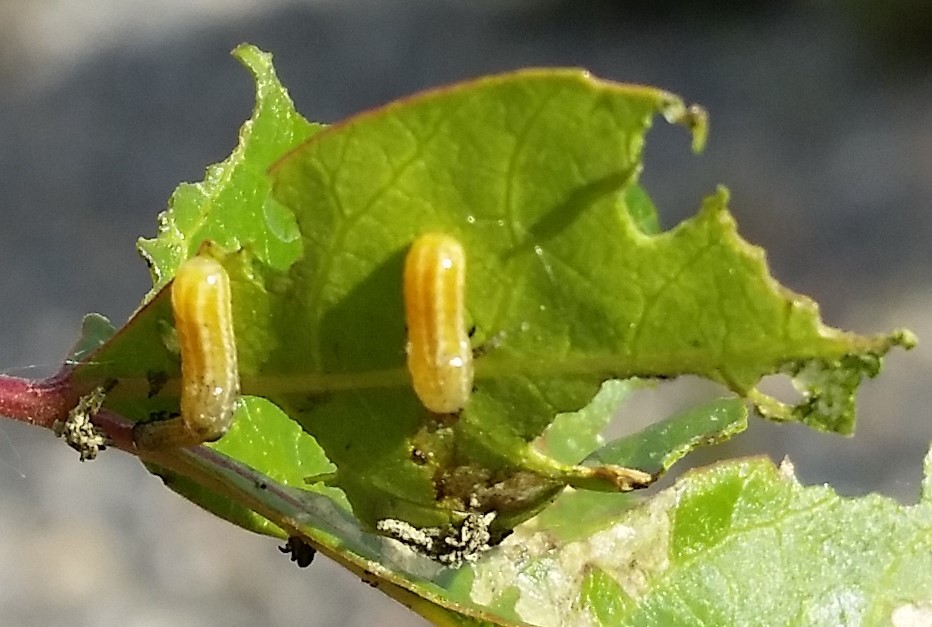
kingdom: Animalia
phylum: Arthropoda
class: Insecta
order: Coleoptera
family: Chrysomelidae
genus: Blepharida
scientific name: Blepharida rhois
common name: Sumac flea beetle
